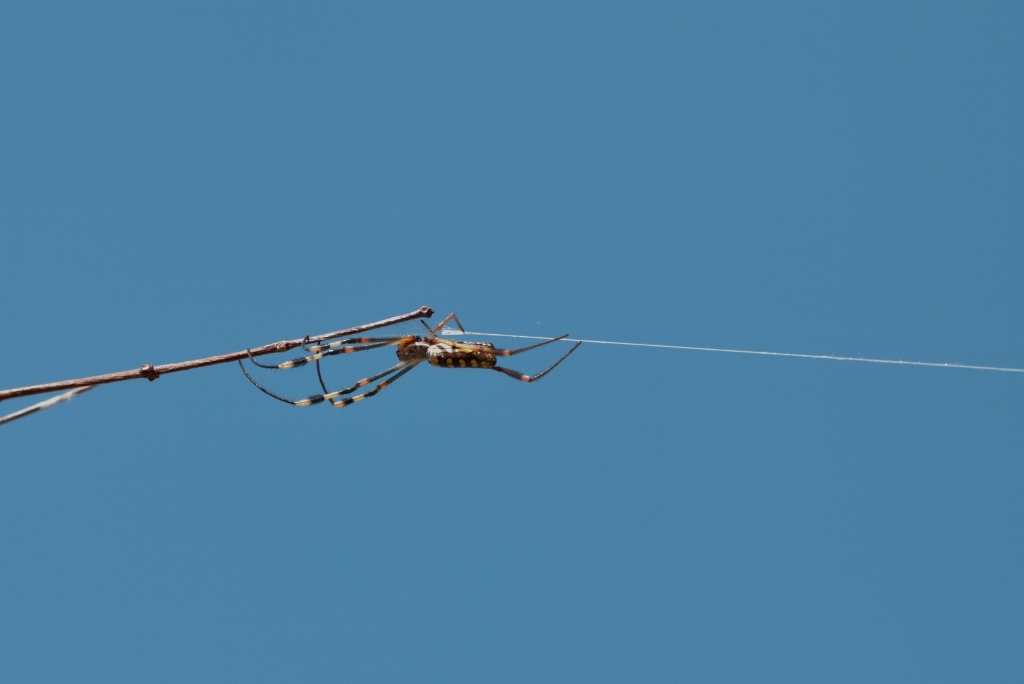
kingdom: Animalia
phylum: Arthropoda
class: Arachnida
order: Araneae
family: Araneidae
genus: Trichonephila
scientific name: Trichonephila senegalensis
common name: Banded golden orb weaver
